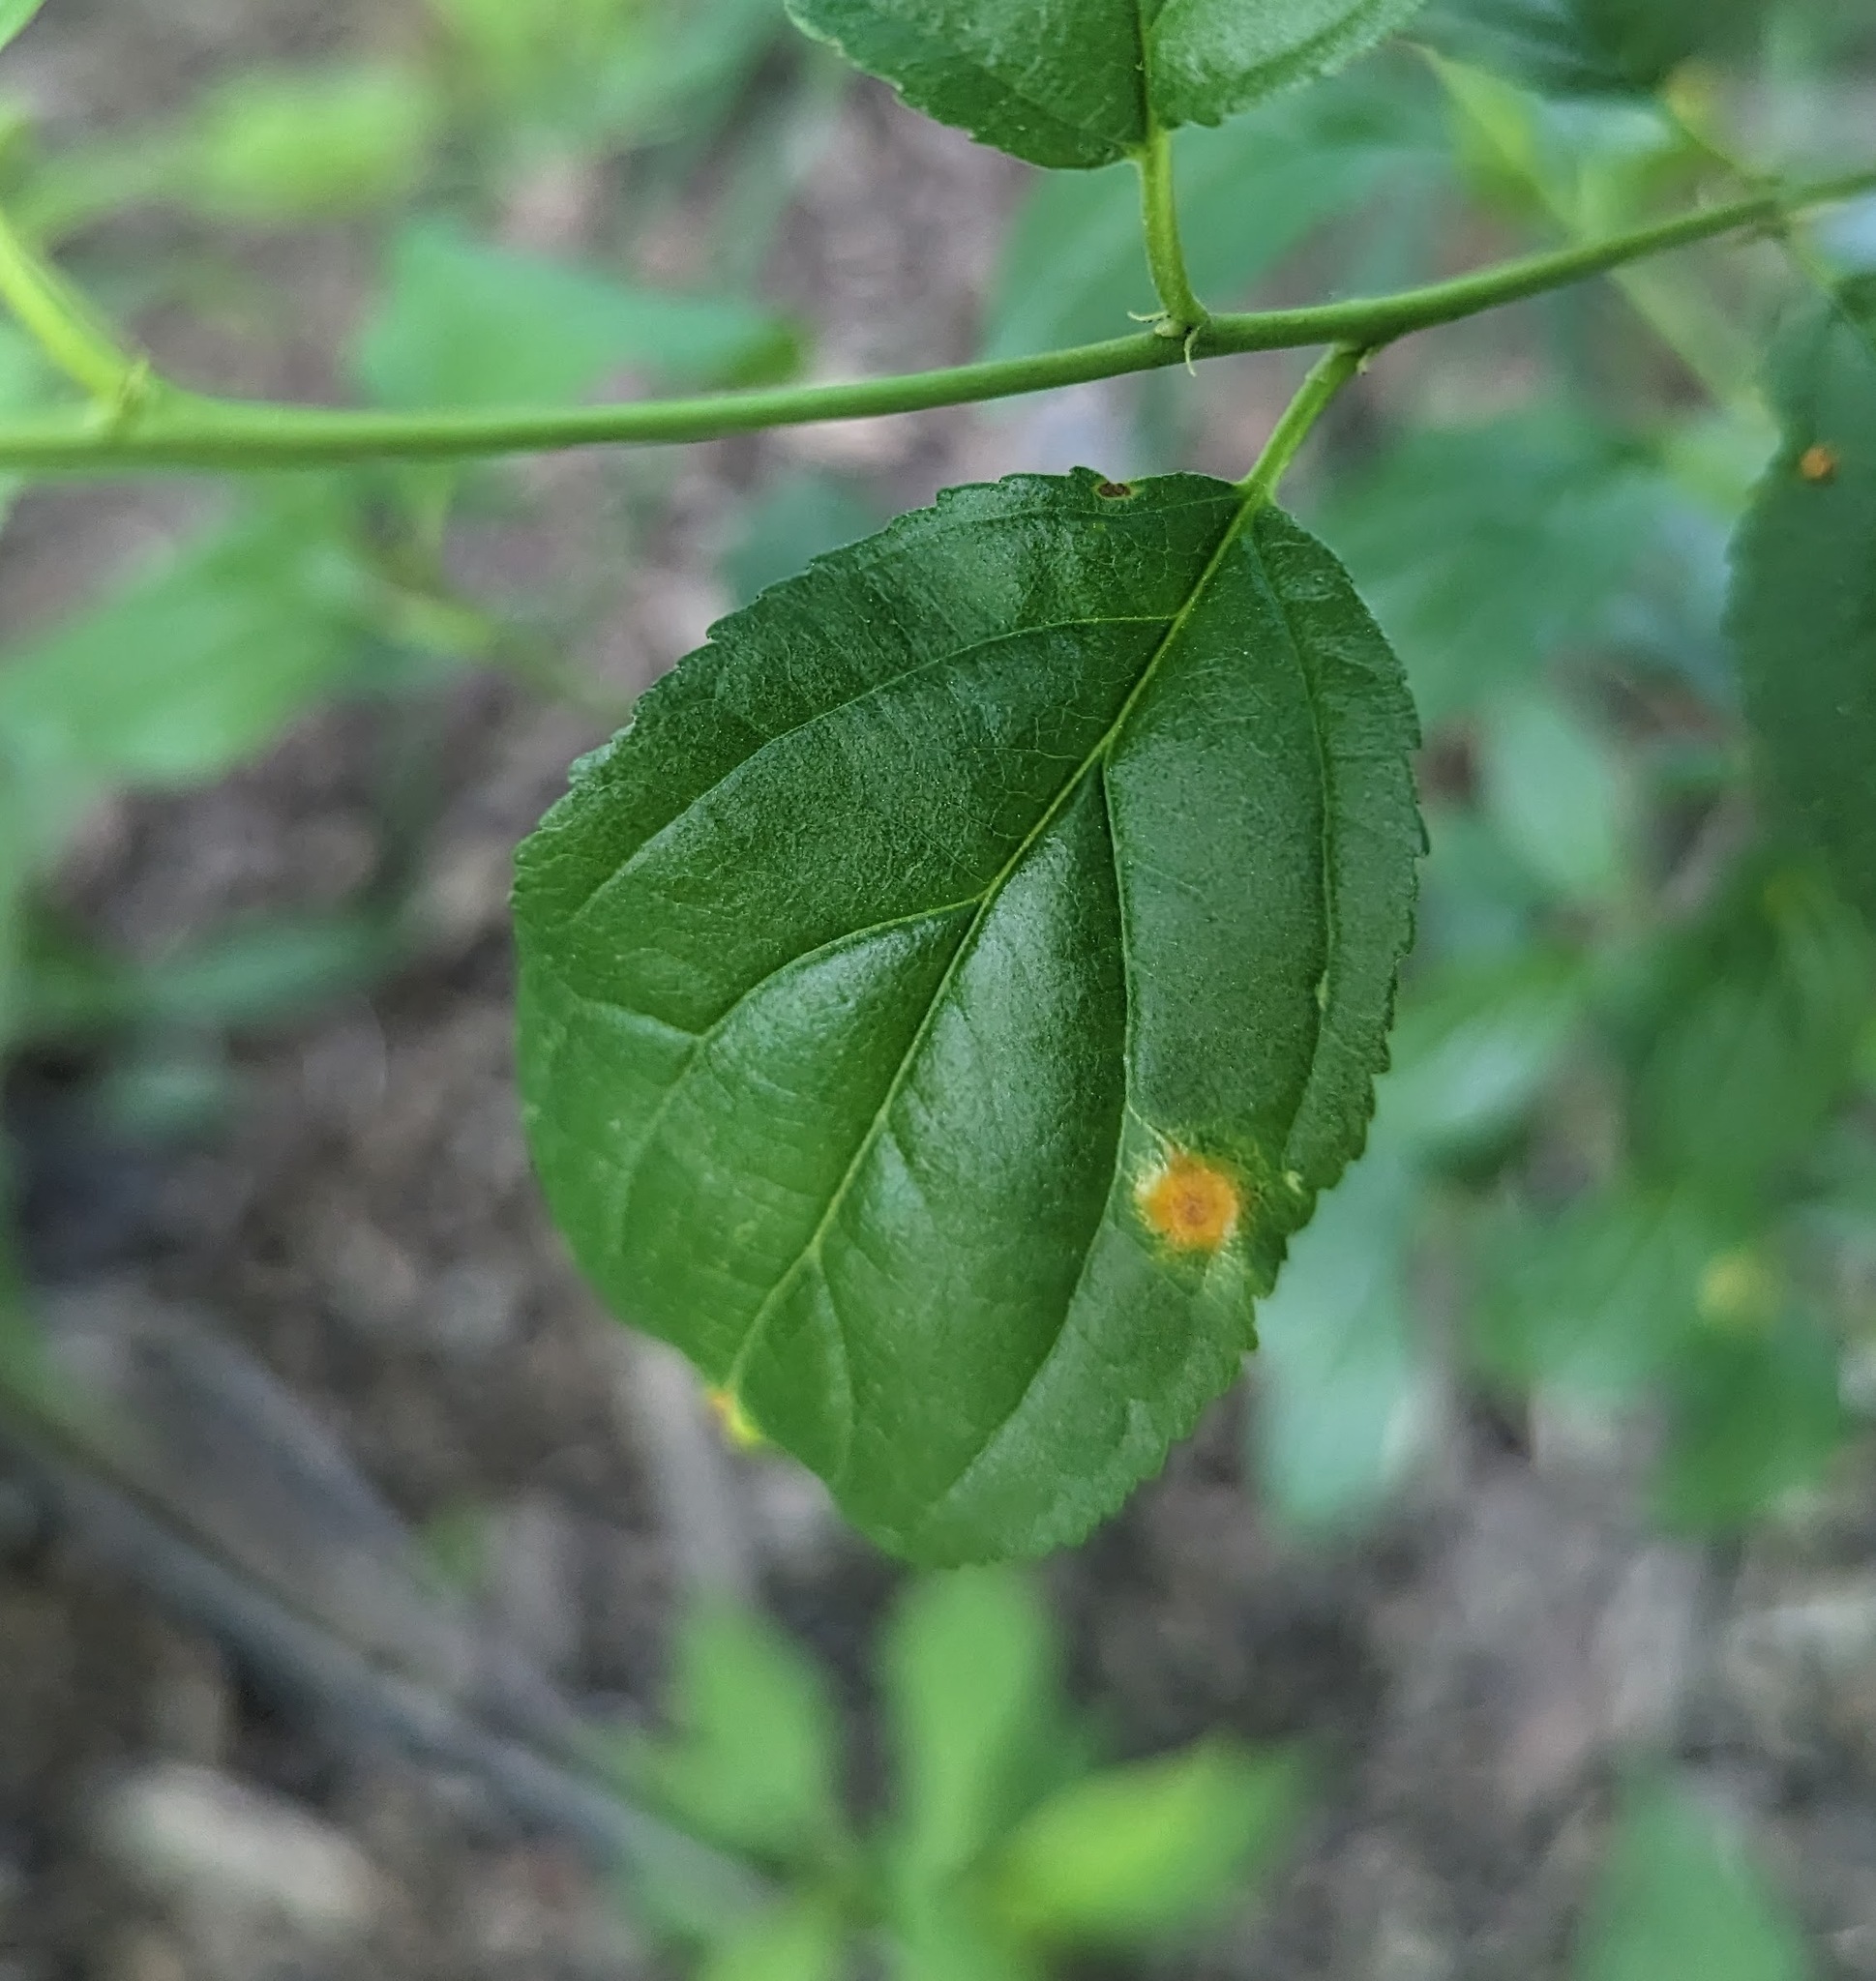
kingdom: Plantae
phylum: Tracheophyta
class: Magnoliopsida
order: Rosales
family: Rhamnaceae
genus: Rhamnus
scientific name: Rhamnus cathartica
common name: Common buckthorn
